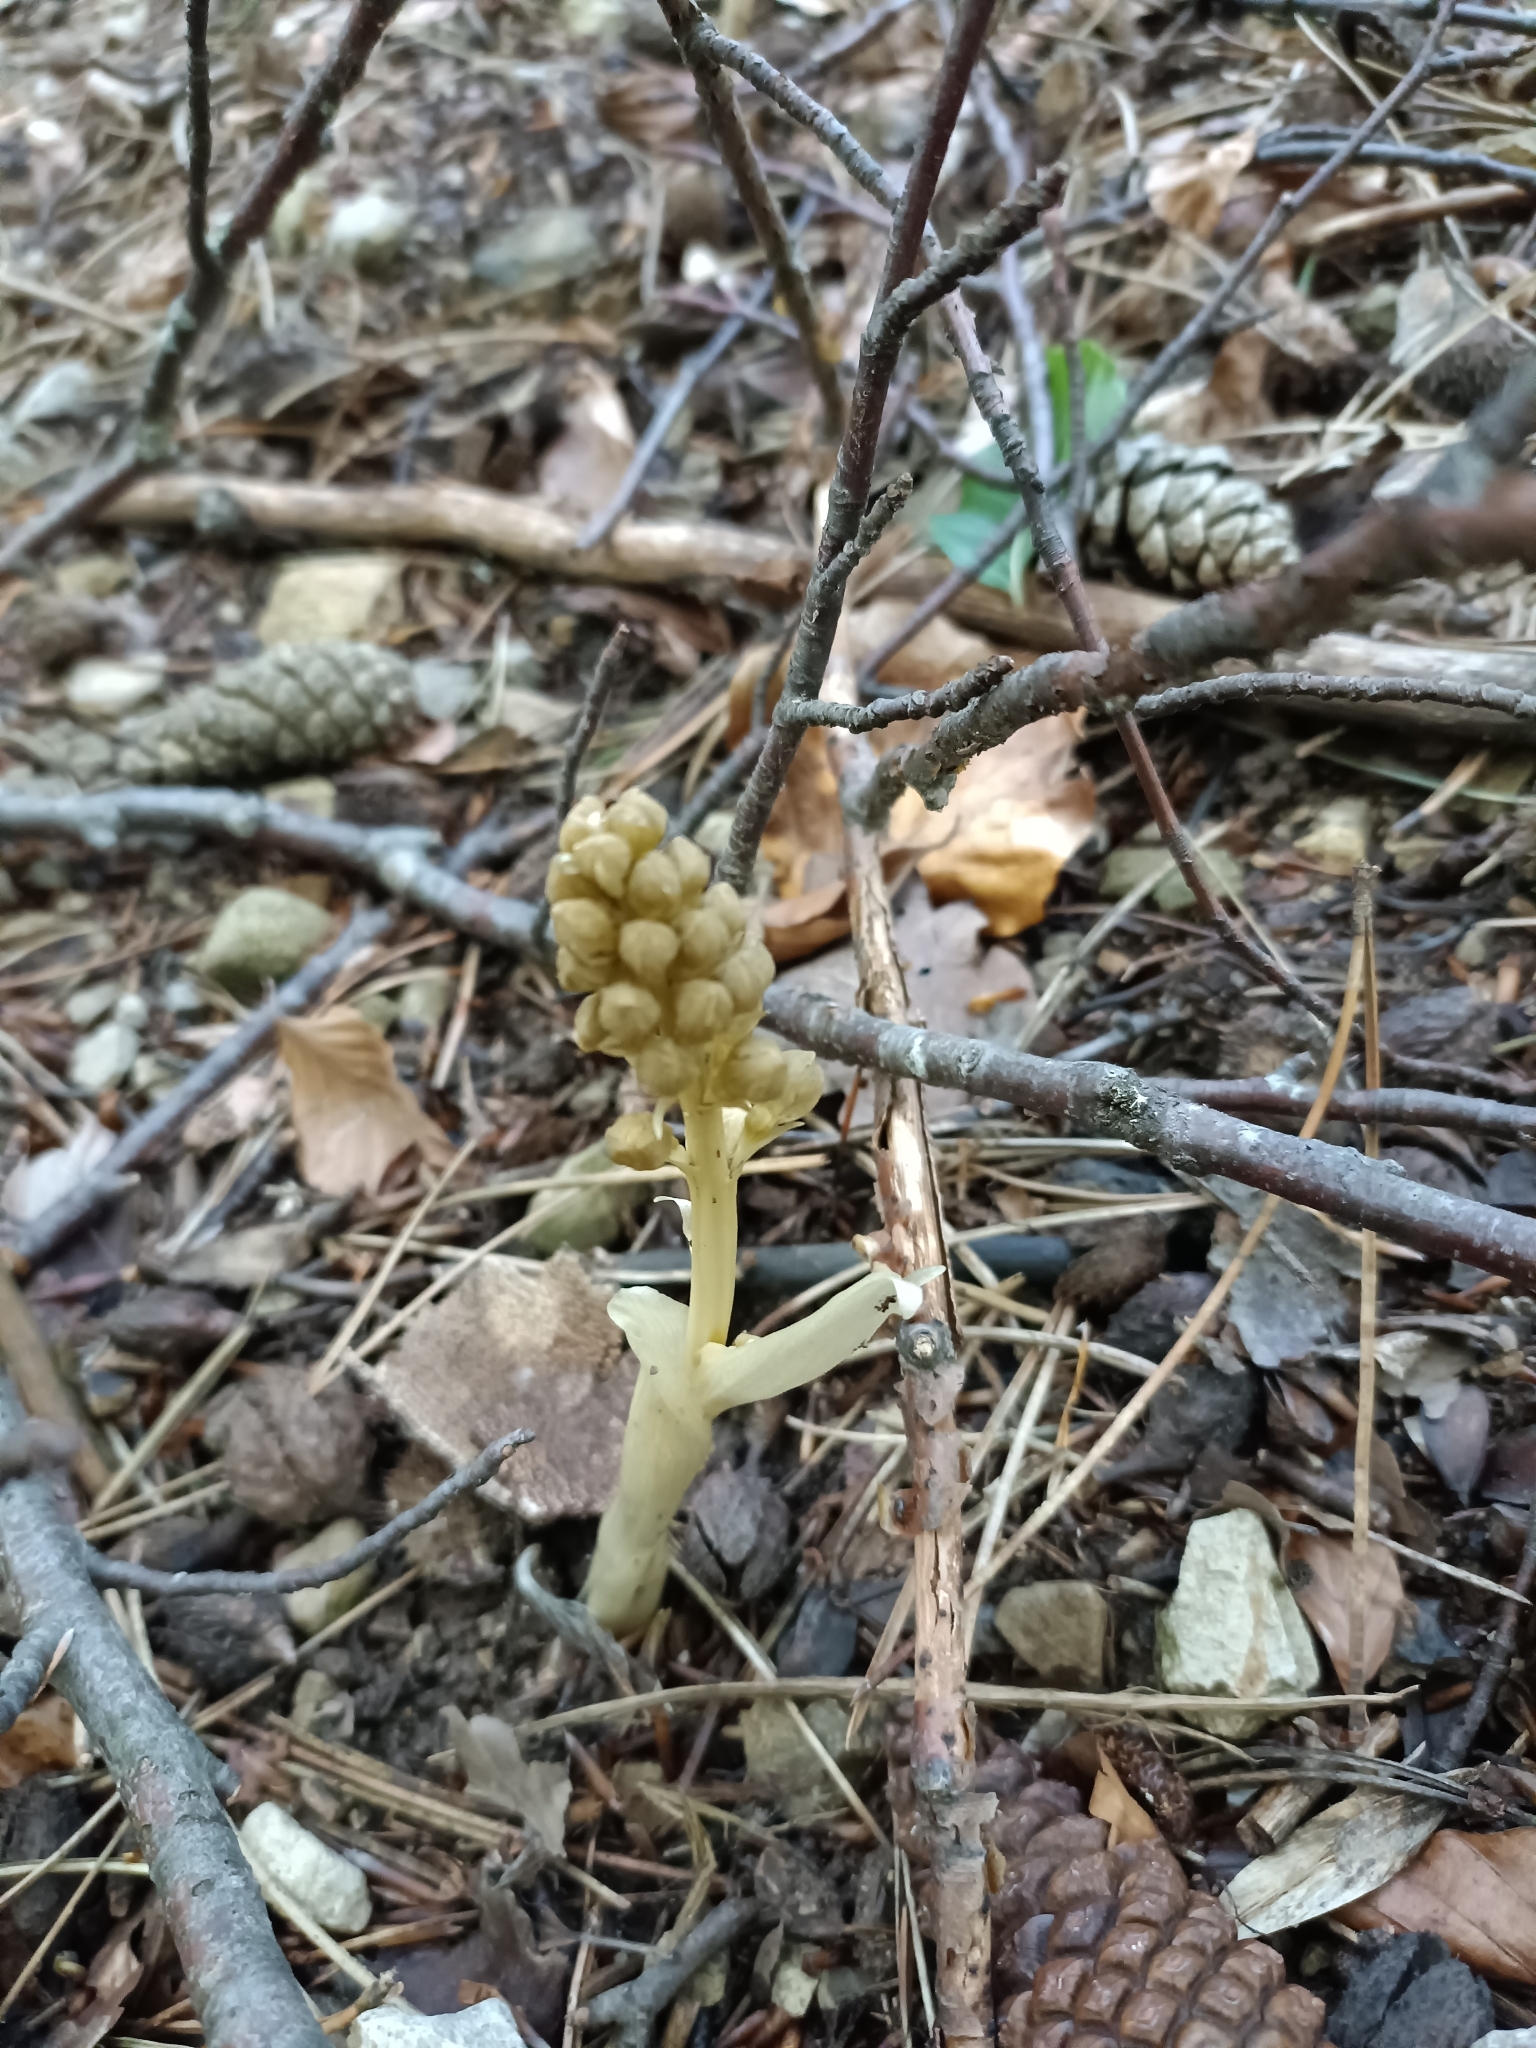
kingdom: Plantae
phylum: Tracheophyta
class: Liliopsida
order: Asparagales
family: Orchidaceae
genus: Neottia
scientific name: Neottia nidus-avis
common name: Bird's-nest orchid
